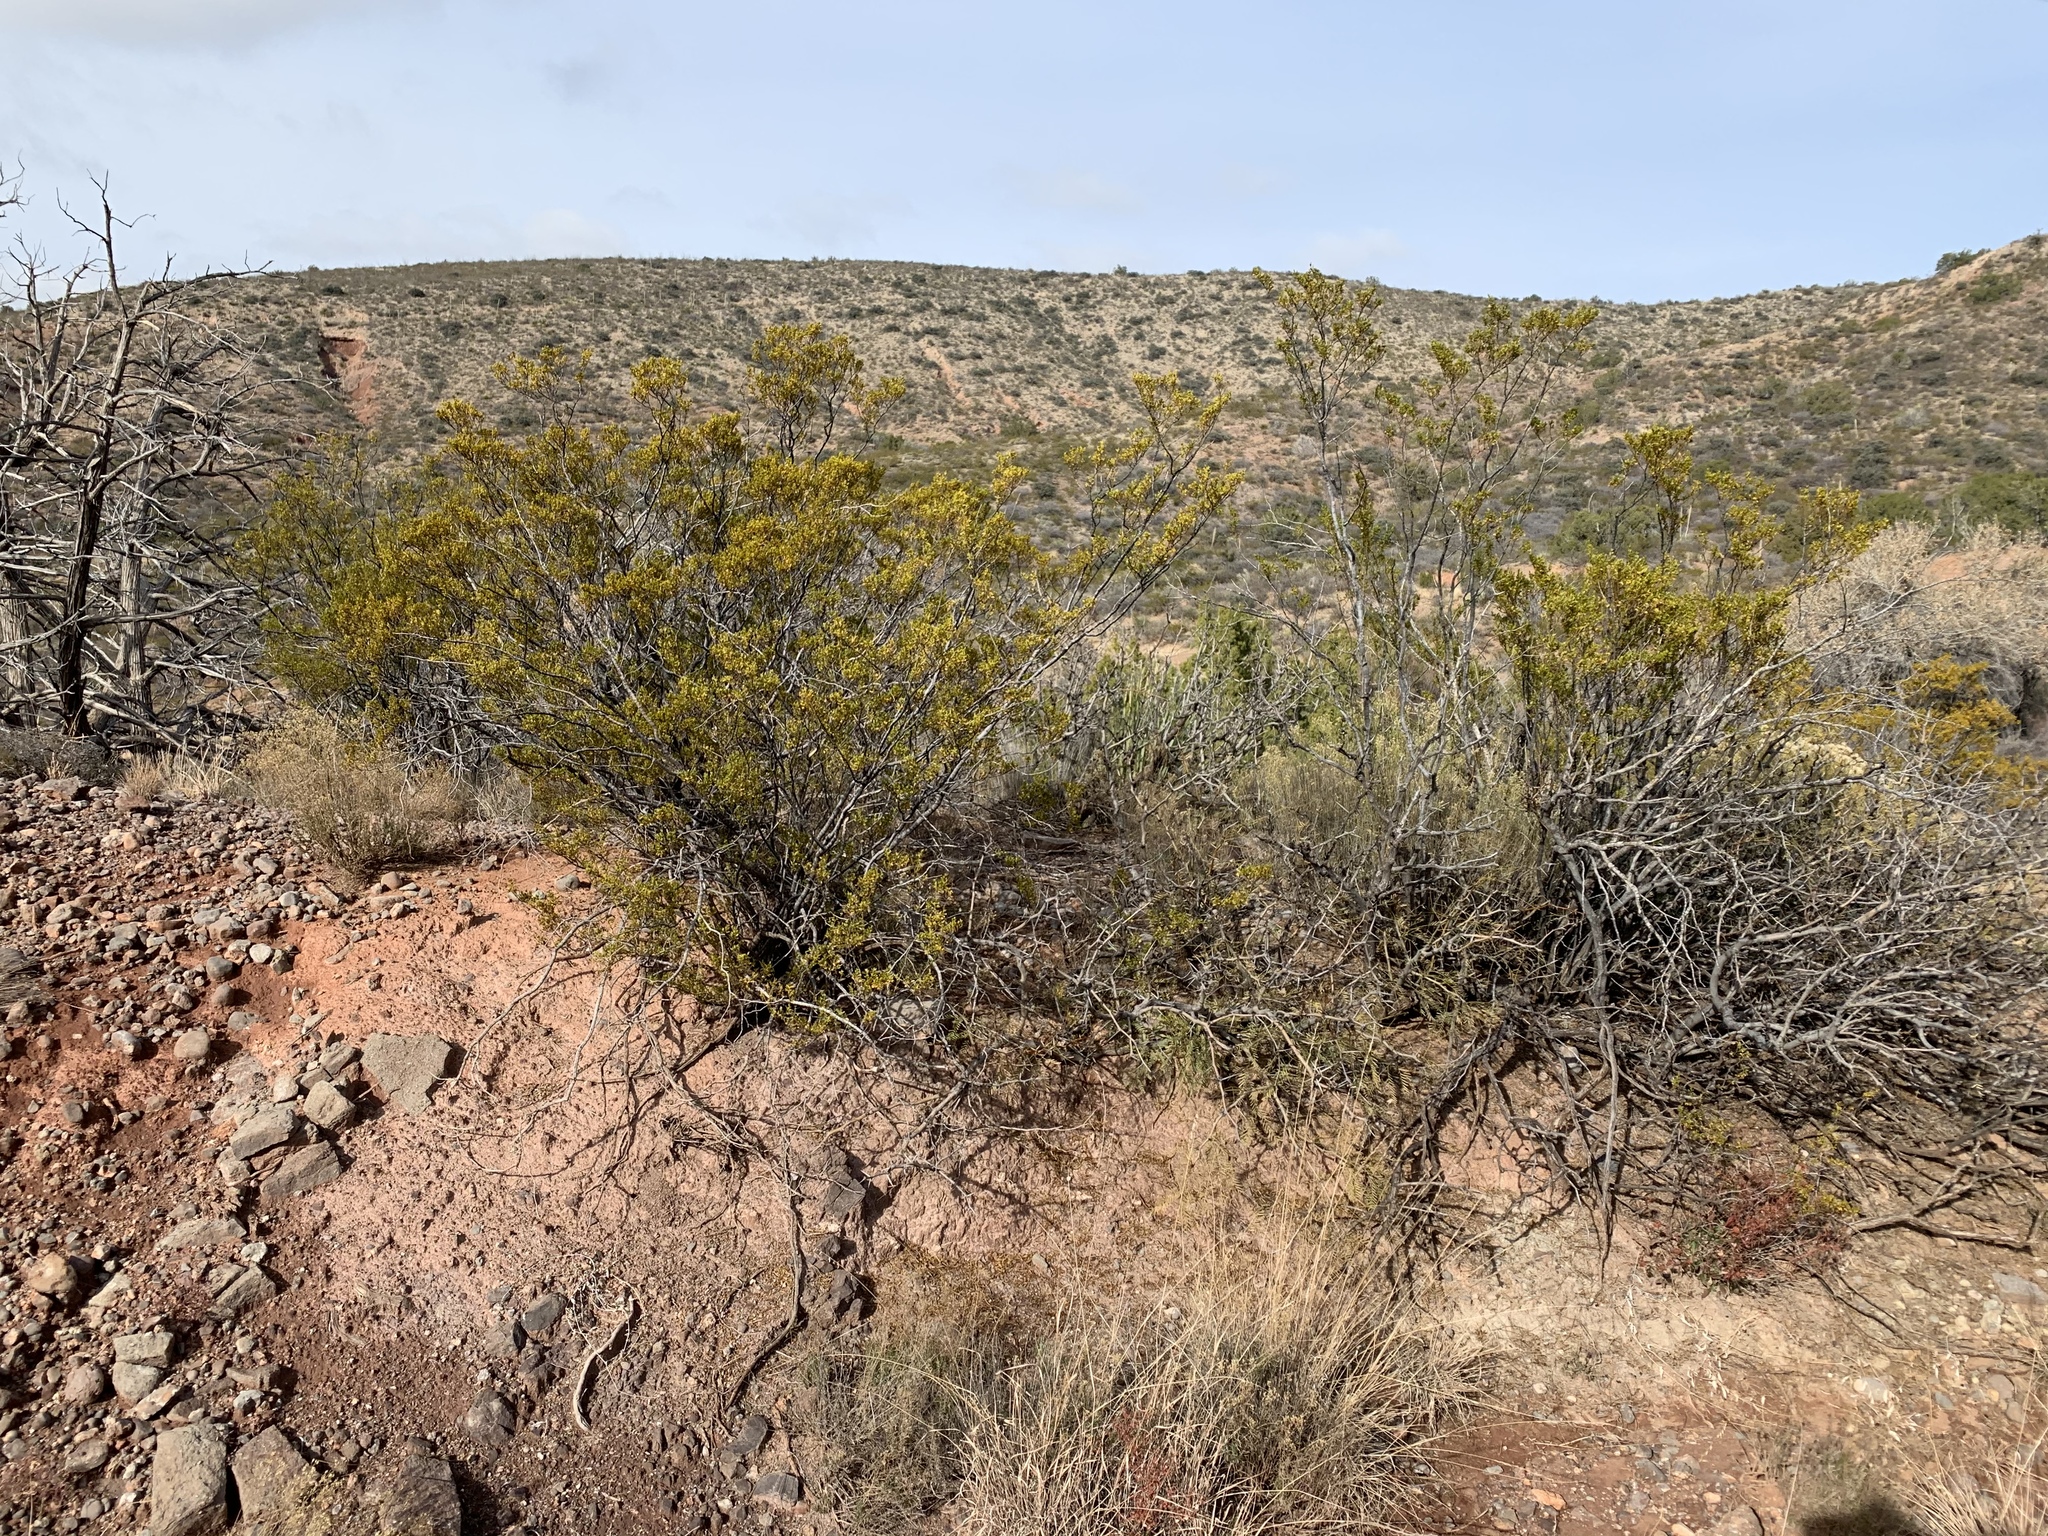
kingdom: Plantae
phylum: Tracheophyta
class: Magnoliopsida
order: Zygophyllales
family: Zygophyllaceae
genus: Larrea
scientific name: Larrea tridentata
